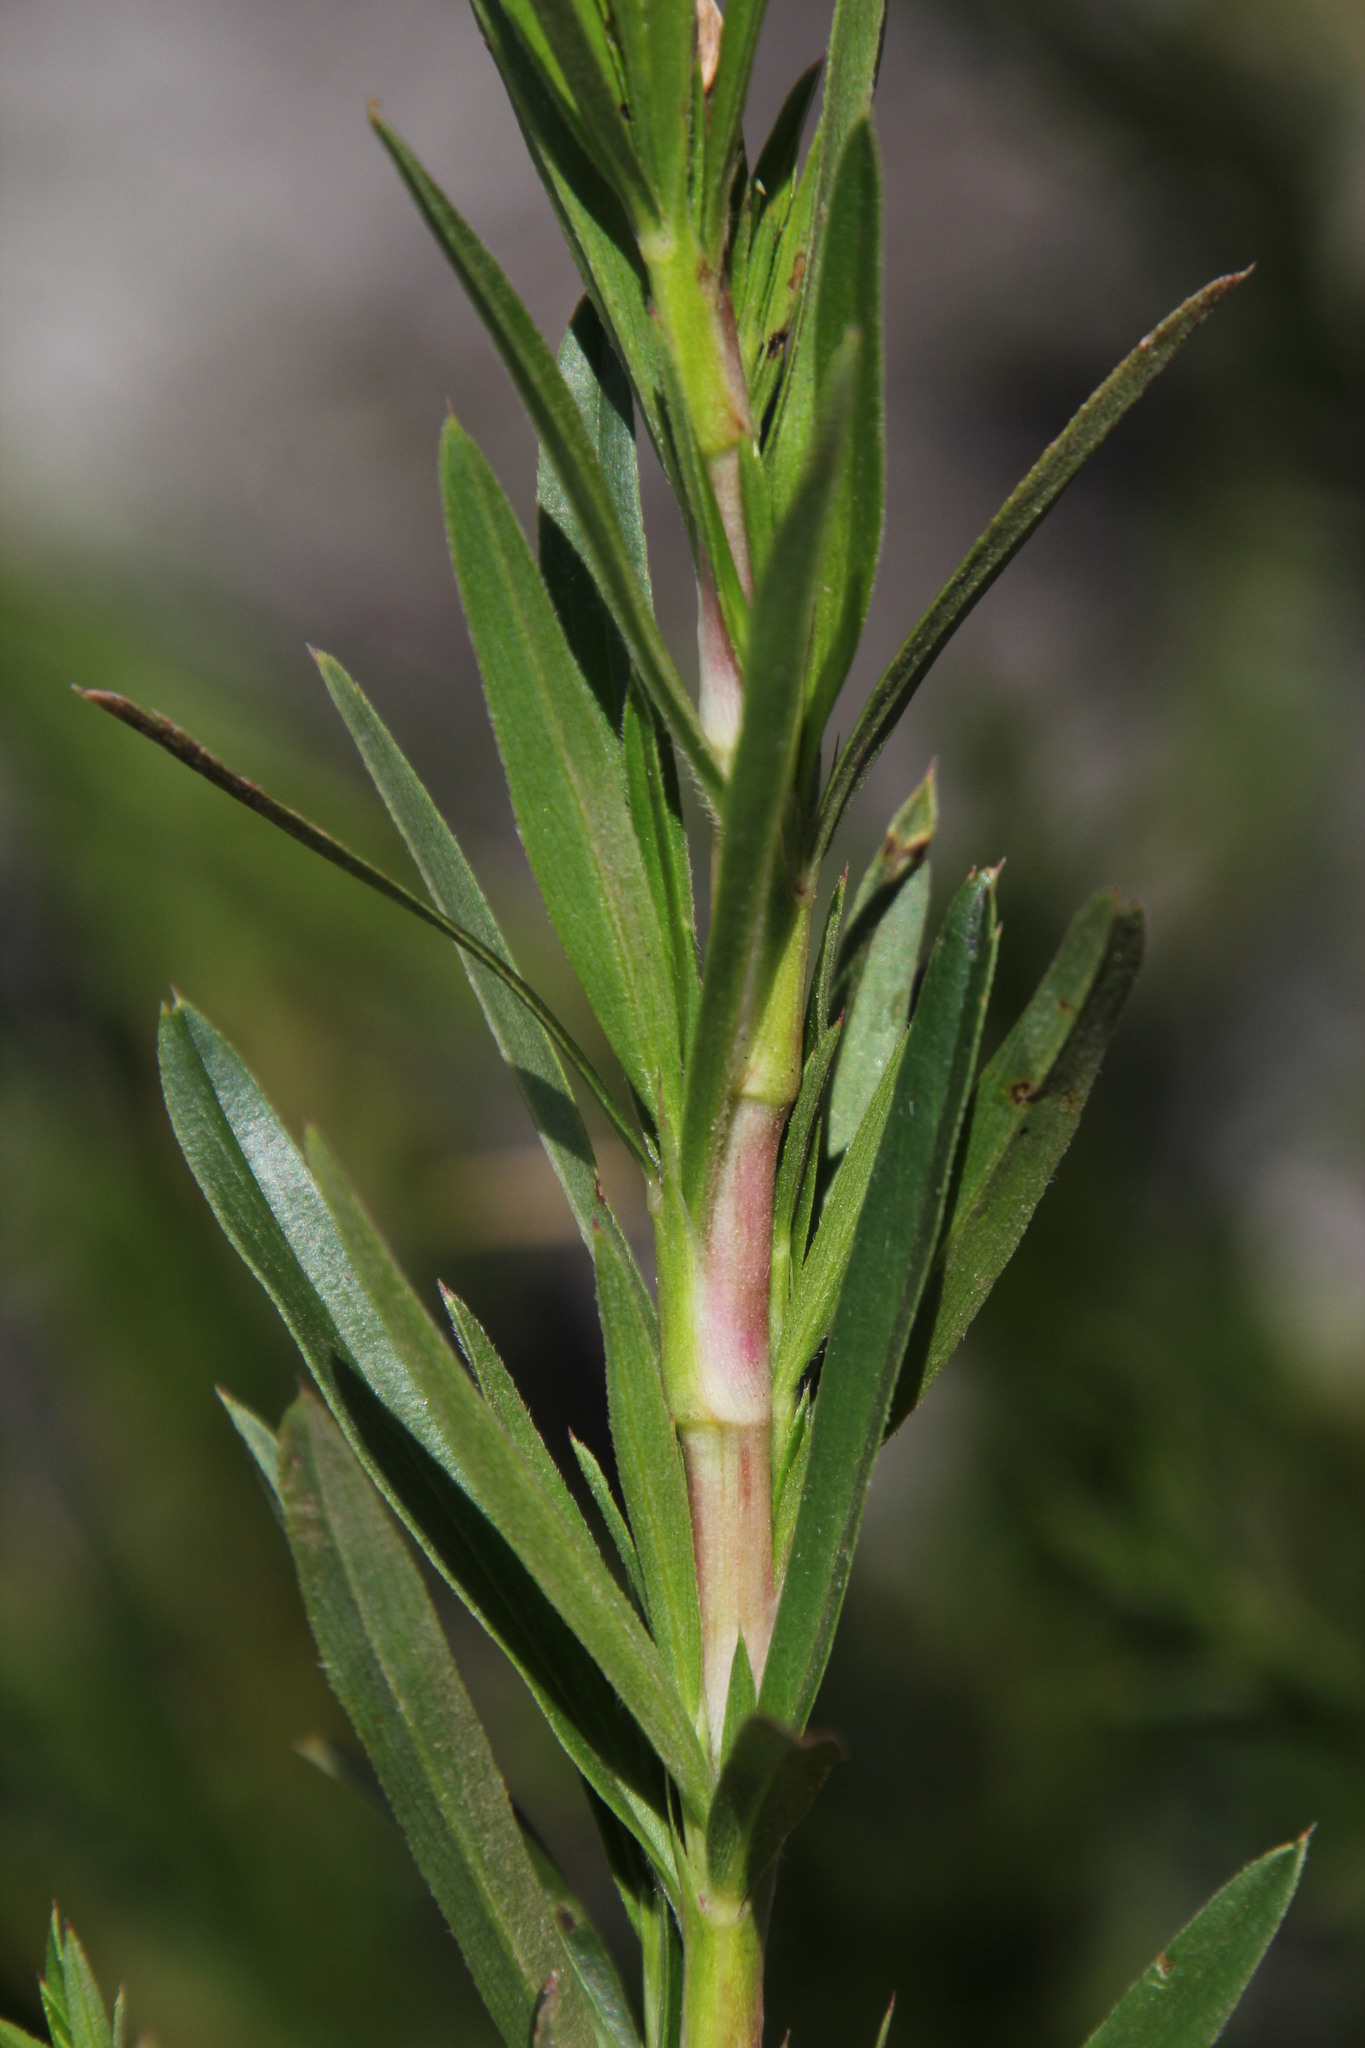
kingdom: Plantae
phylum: Tracheophyta
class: Magnoliopsida
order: Rosales
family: Rosaceae
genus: Cliffortia
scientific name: Cliffortia strobilifera
